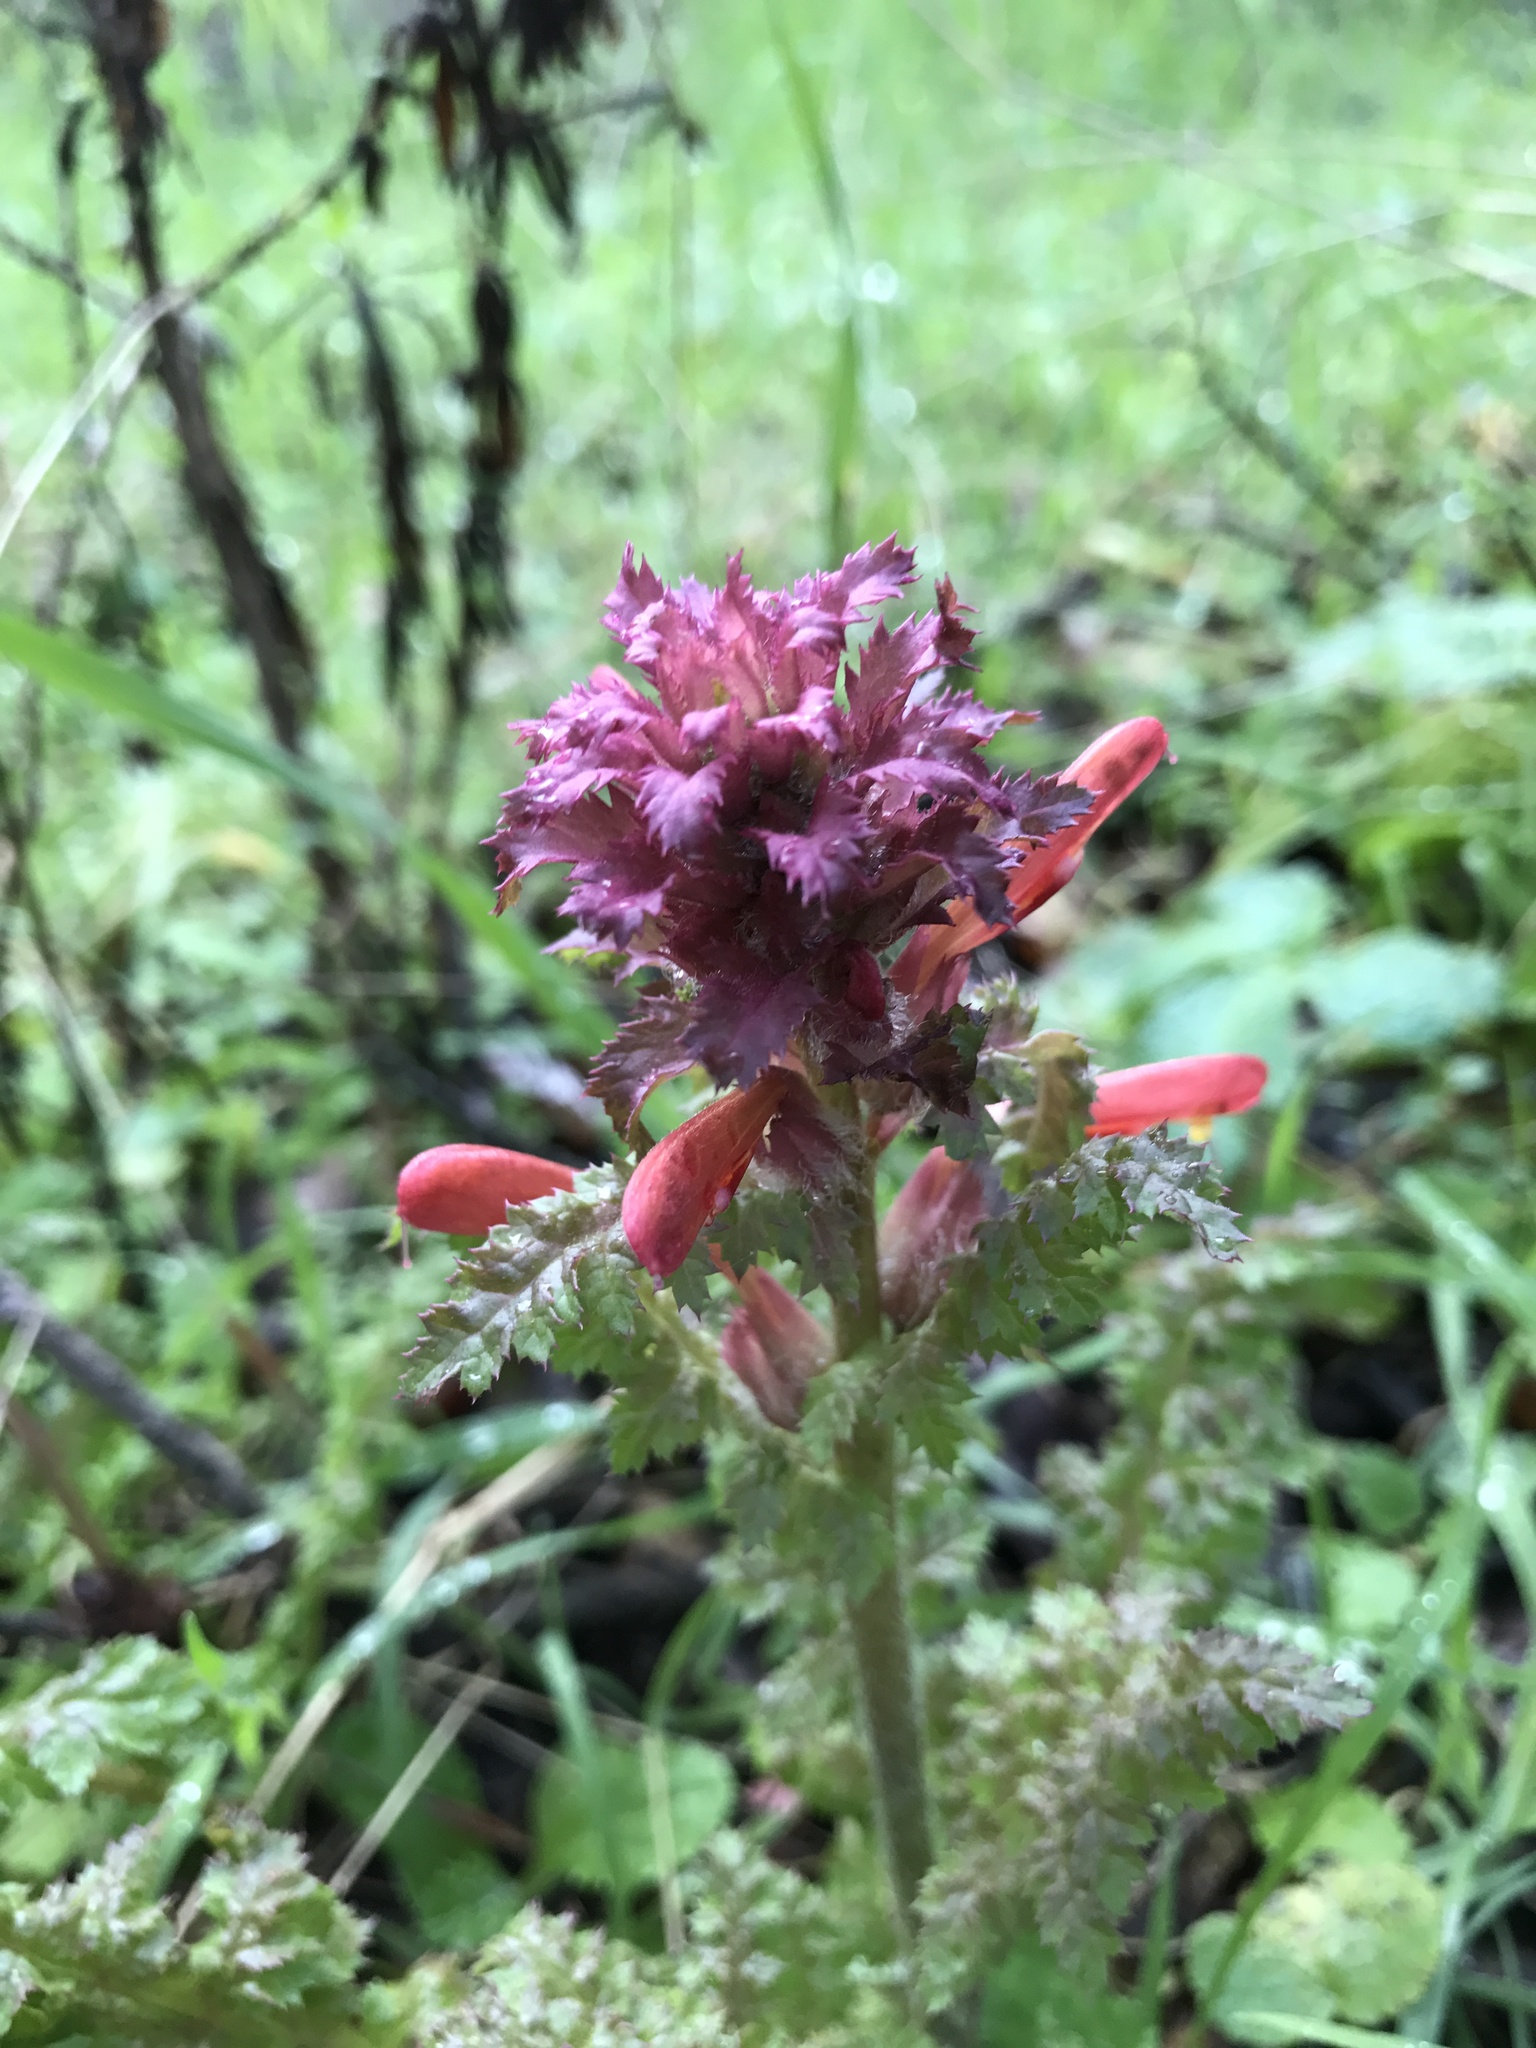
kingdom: Plantae
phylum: Tracheophyta
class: Magnoliopsida
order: Lamiales
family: Orobanchaceae
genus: Pedicularis
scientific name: Pedicularis densiflora
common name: Indian warrior
